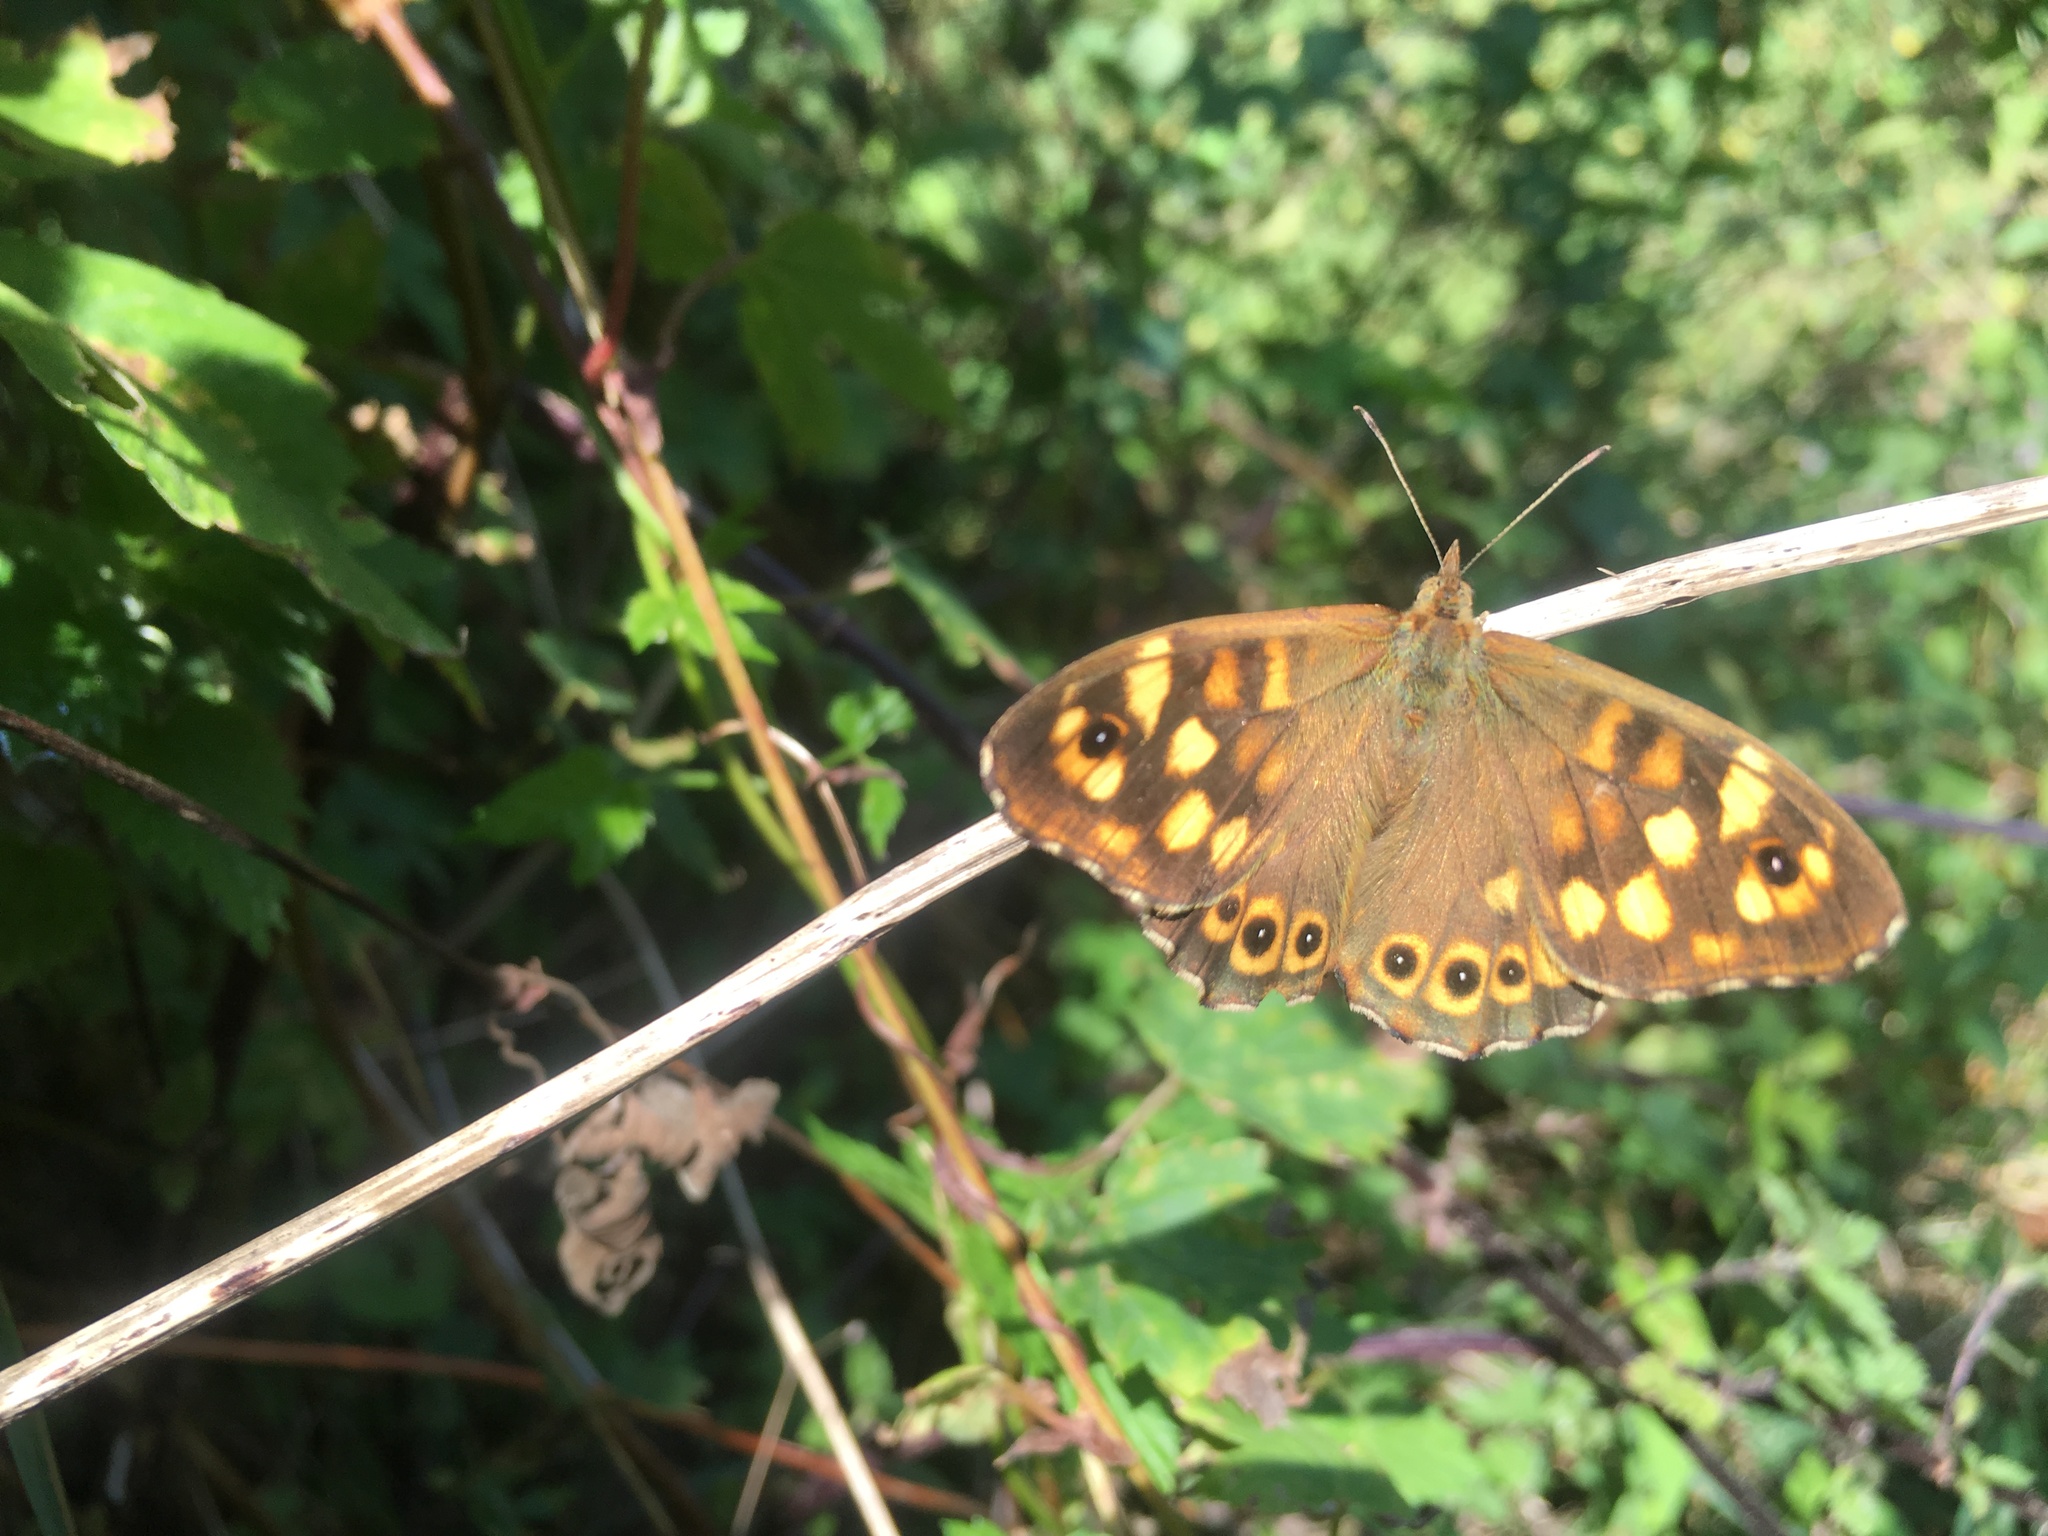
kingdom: Animalia
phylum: Arthropoda
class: Insecta
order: Lepidoptera
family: Nymphalidae
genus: Pararge
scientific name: Pararge aegeria
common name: Speckled wood
